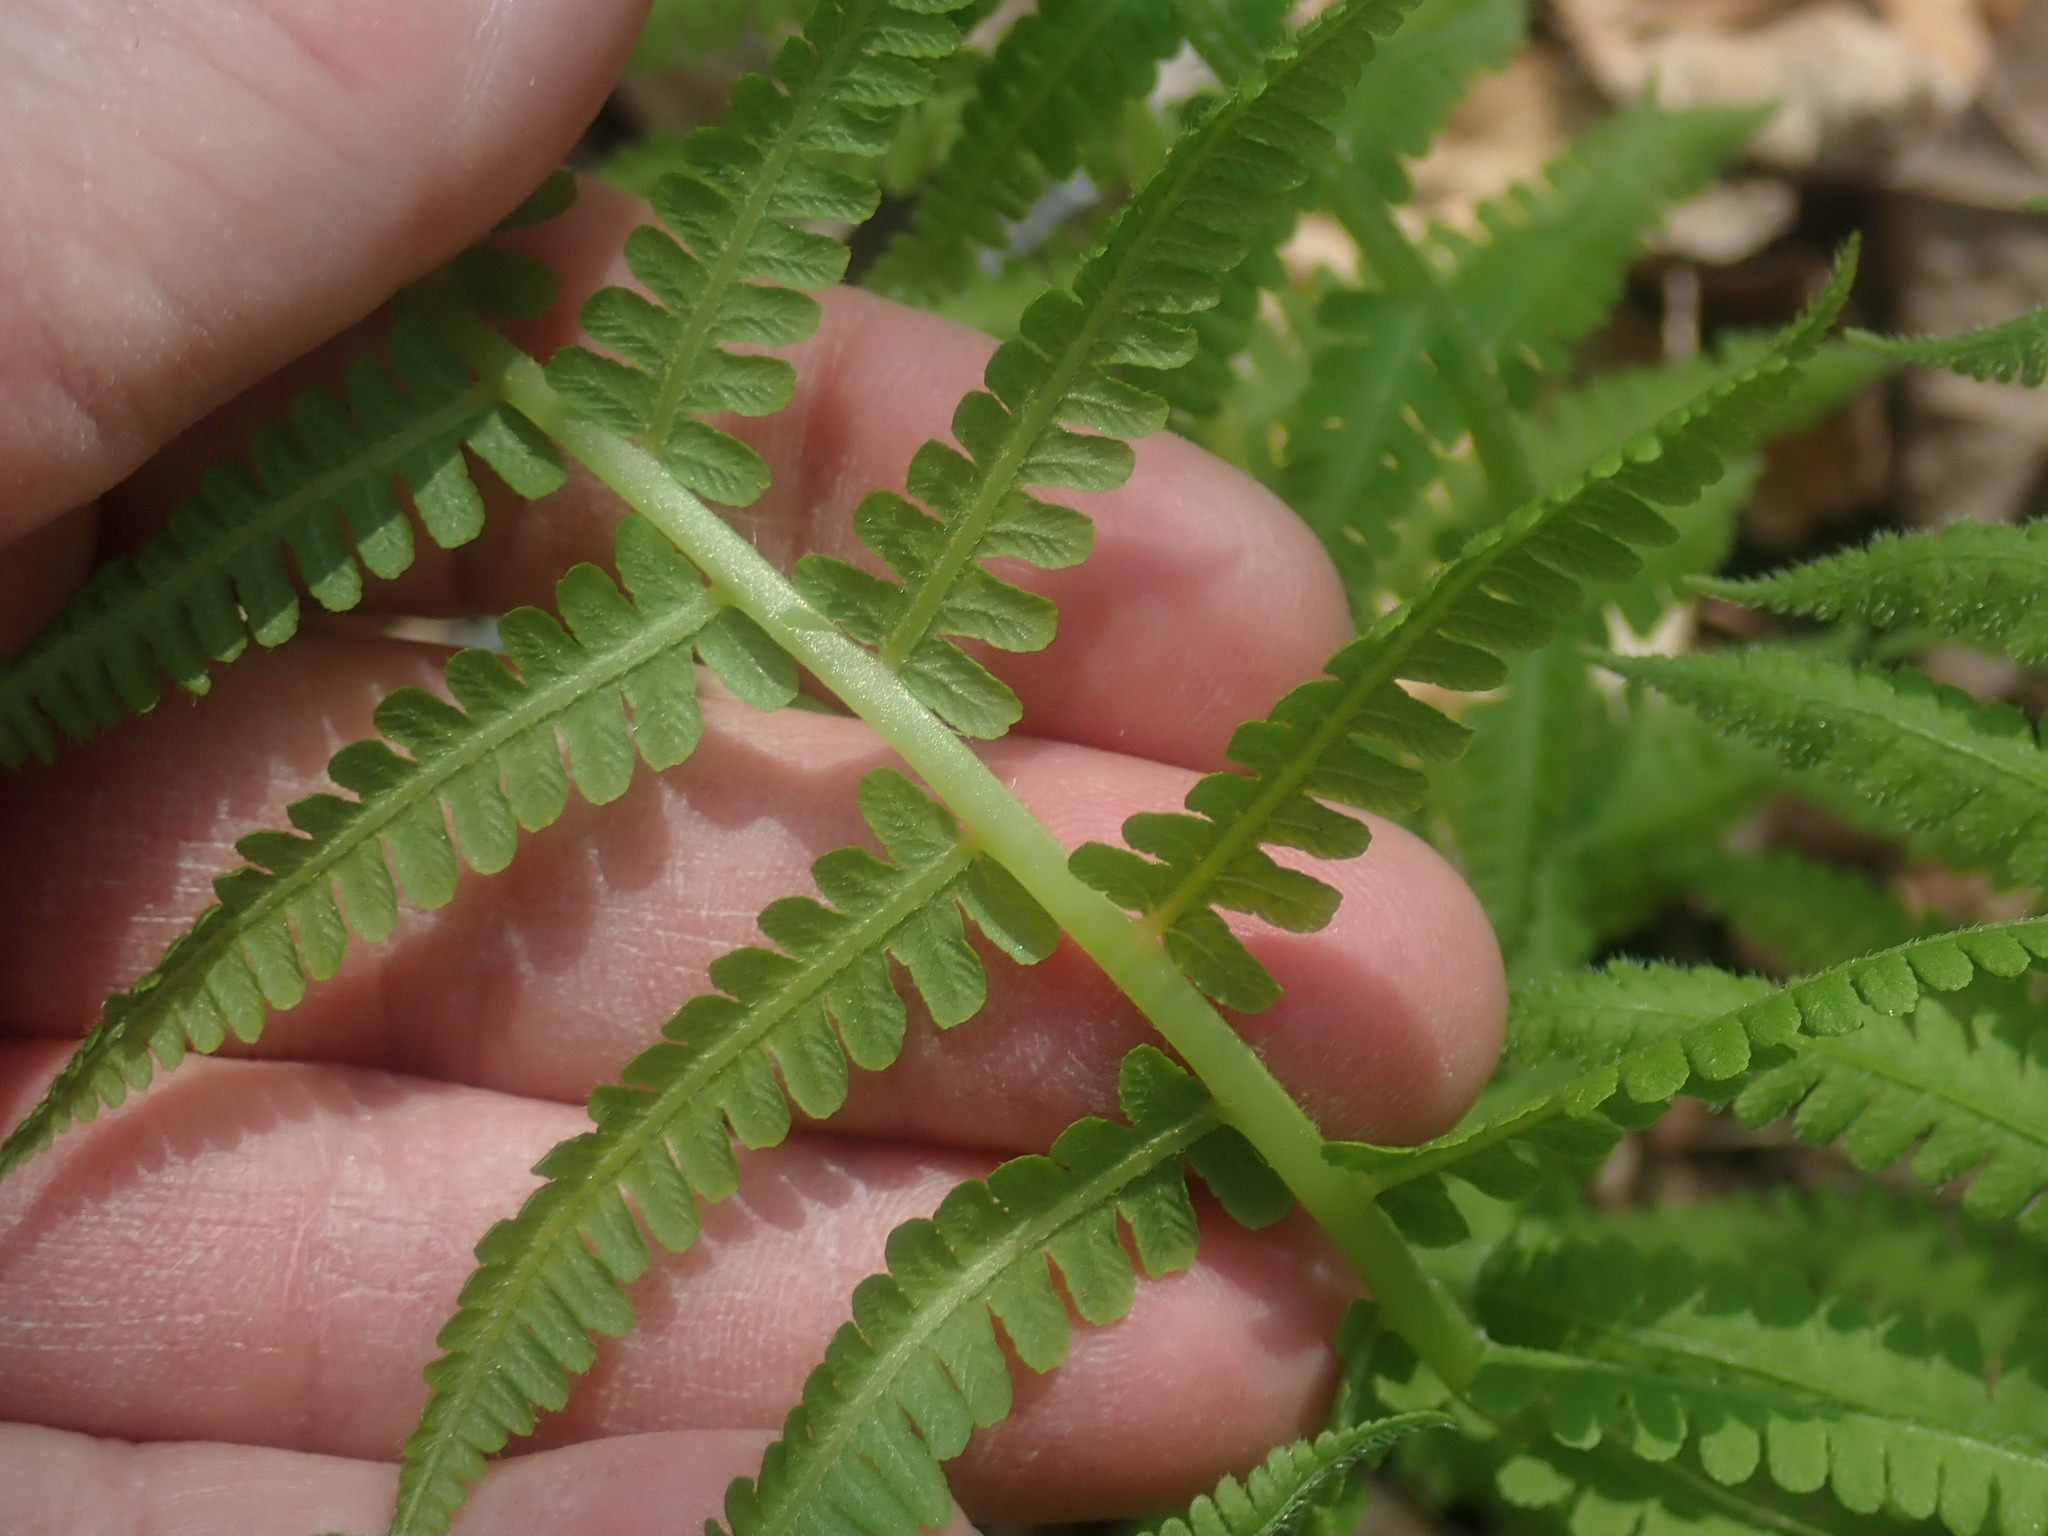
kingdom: Plantae
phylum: Tracheophyta
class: Polypodiopsida
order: Polypodiales
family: Athyriaceae
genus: Deparia
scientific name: Deparia acrostichoides
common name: Silver false spleenwort
